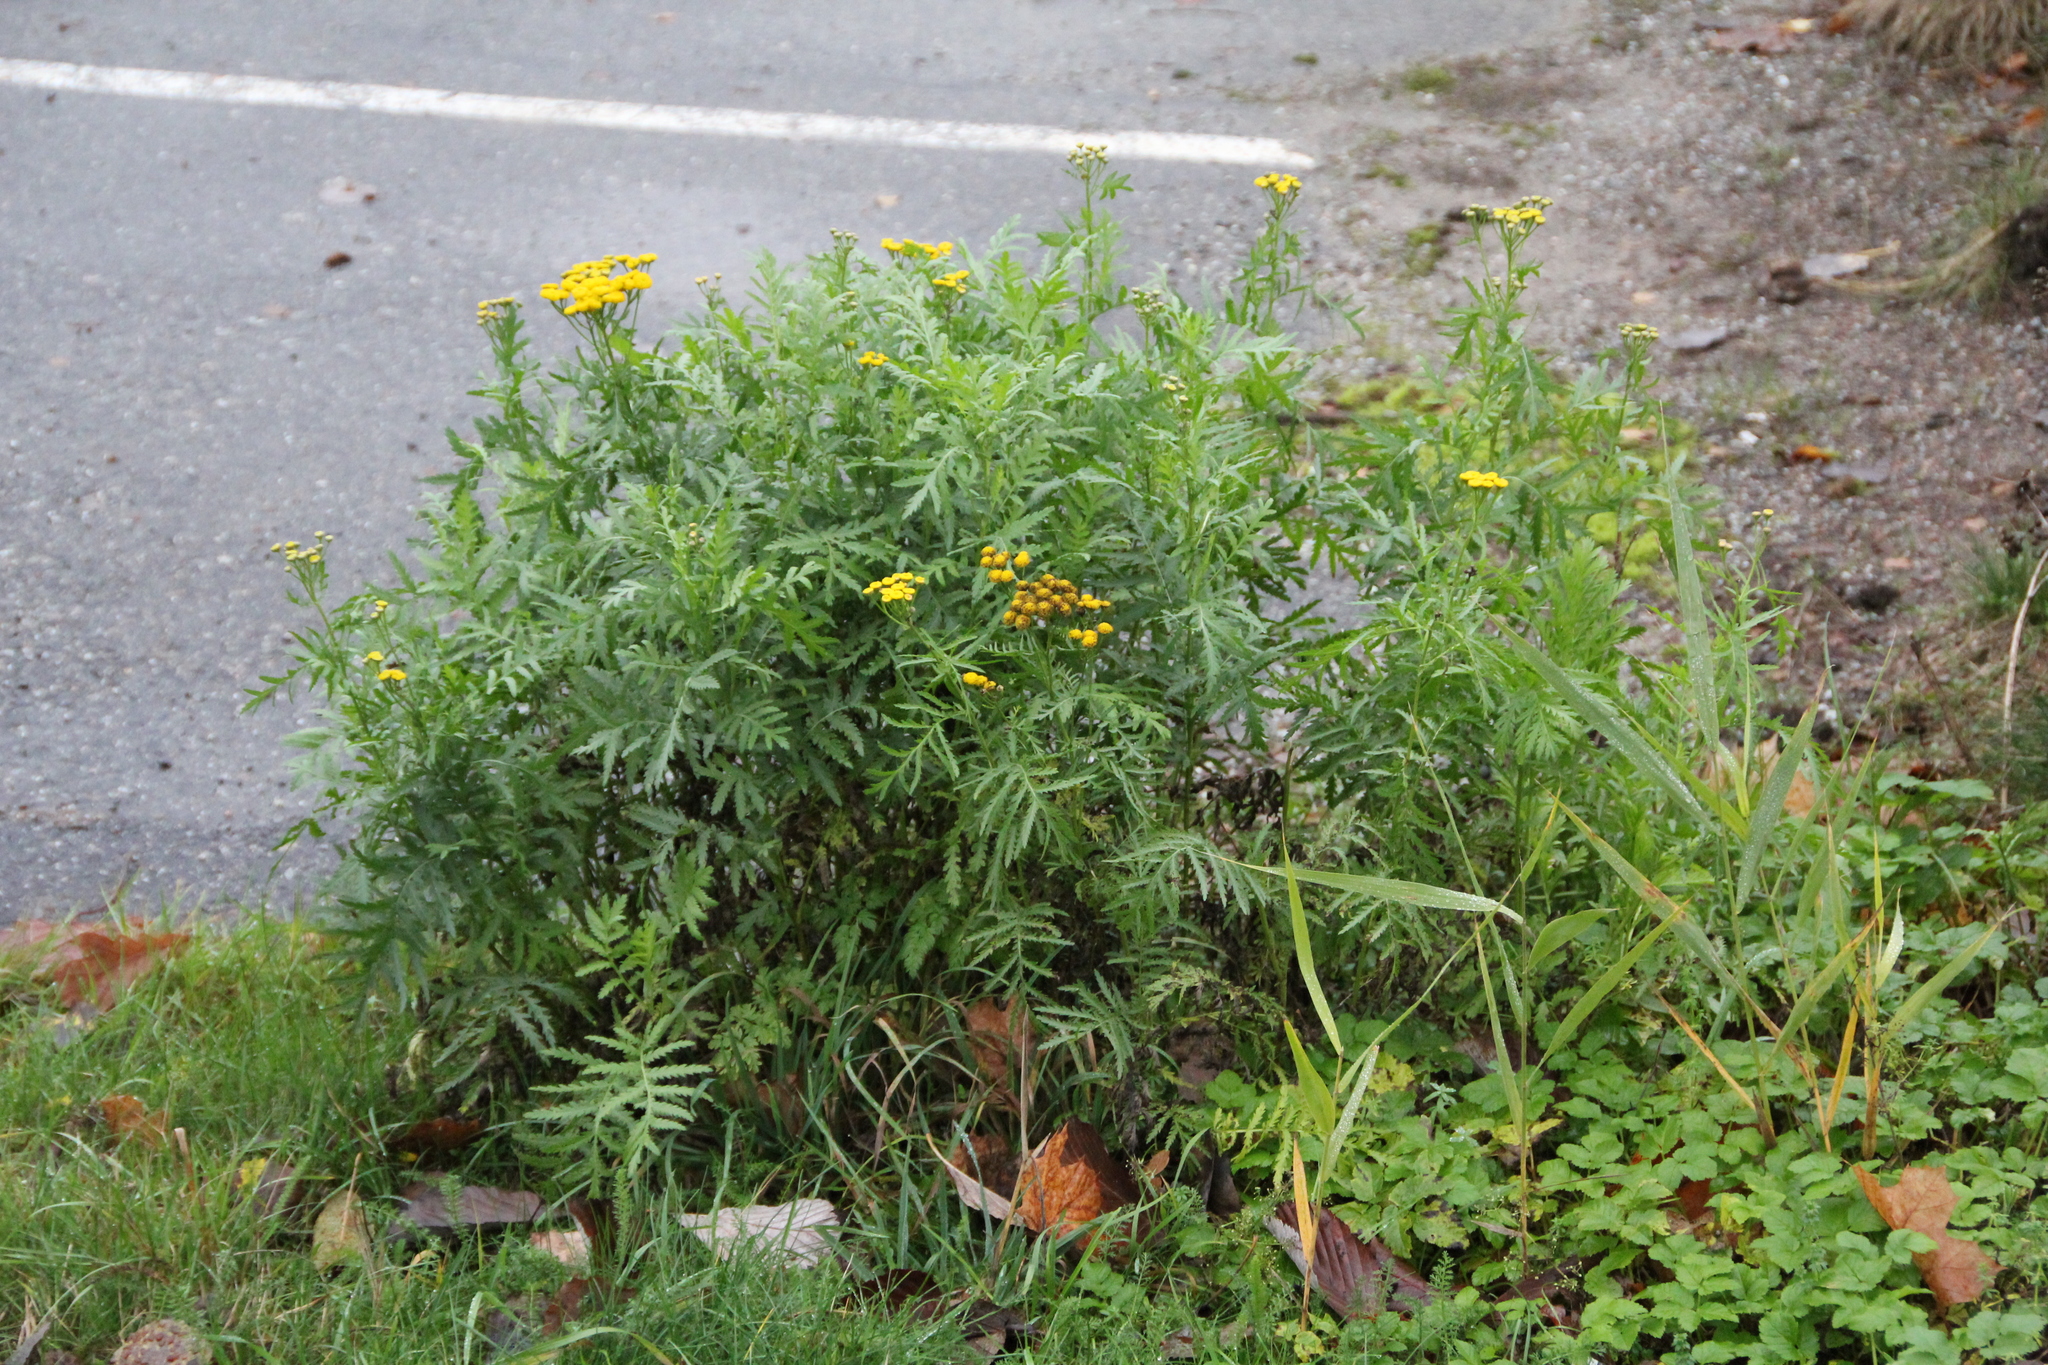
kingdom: Plantae
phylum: Tracheophyta
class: Magnoliopsida
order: Asterales
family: Asteraceae
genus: Tanacetum
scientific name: Tanacetum vulgare
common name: Common tansy
